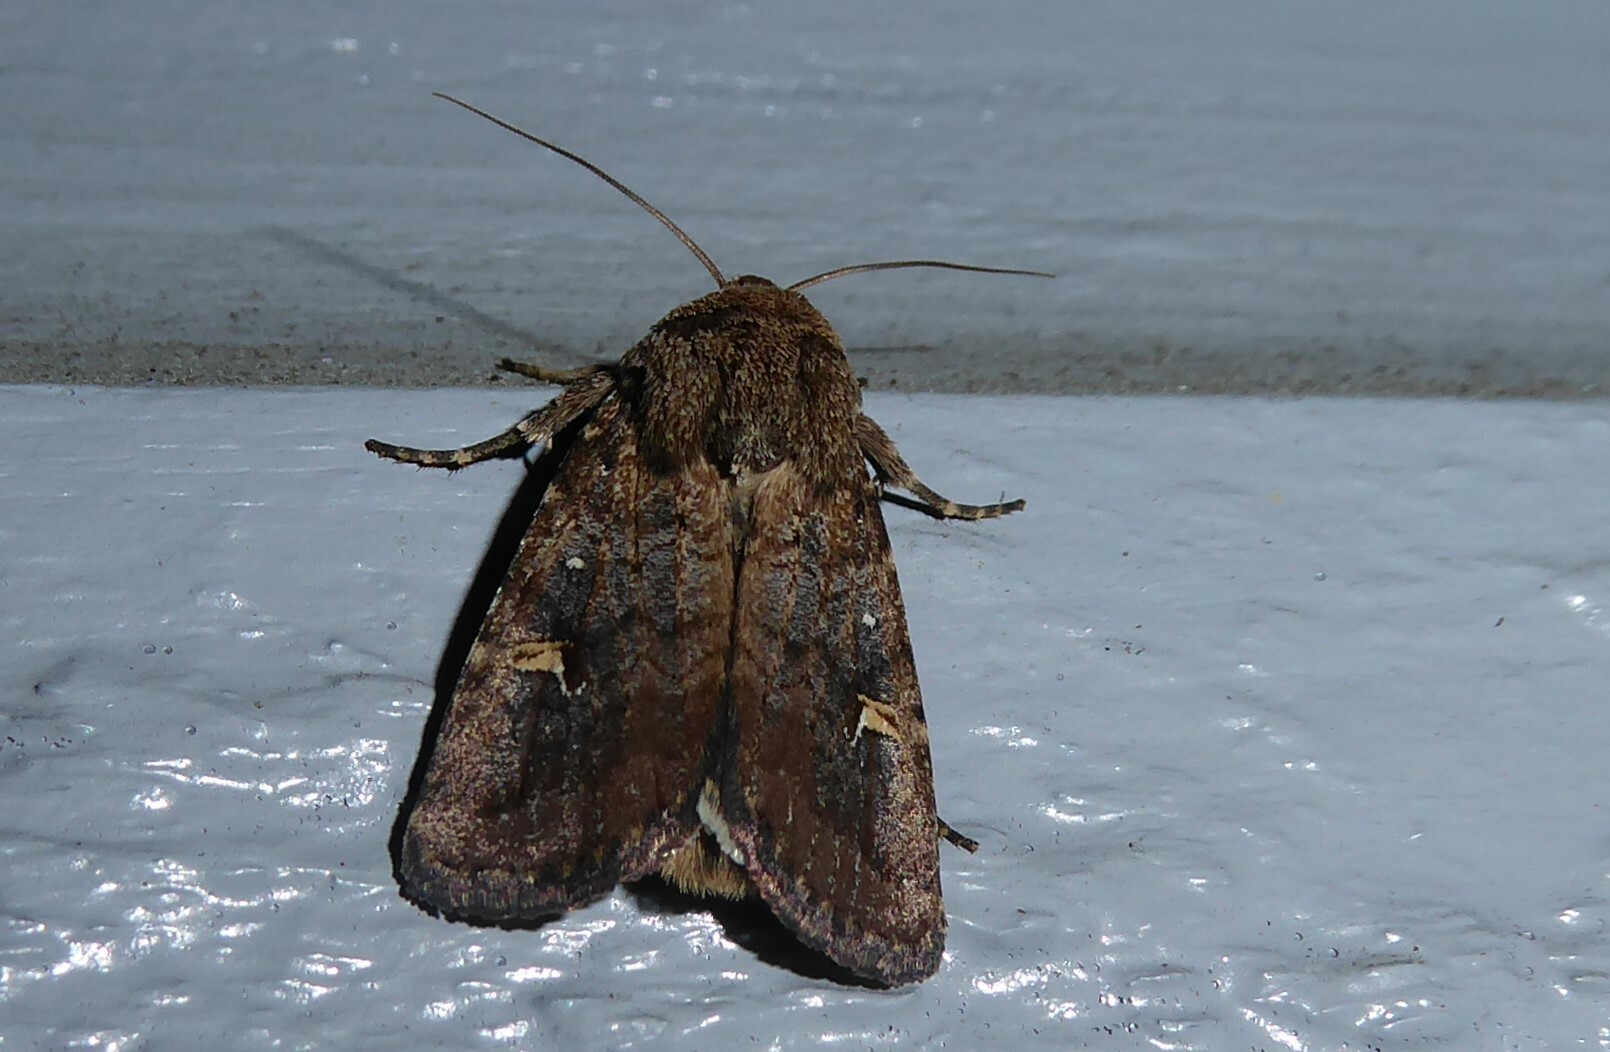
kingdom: Animalia
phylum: Arthropoda
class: Insecta
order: Lepidoptera
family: Noctuidae
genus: Proteuxoa
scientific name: Proteuxoa tetronycha
